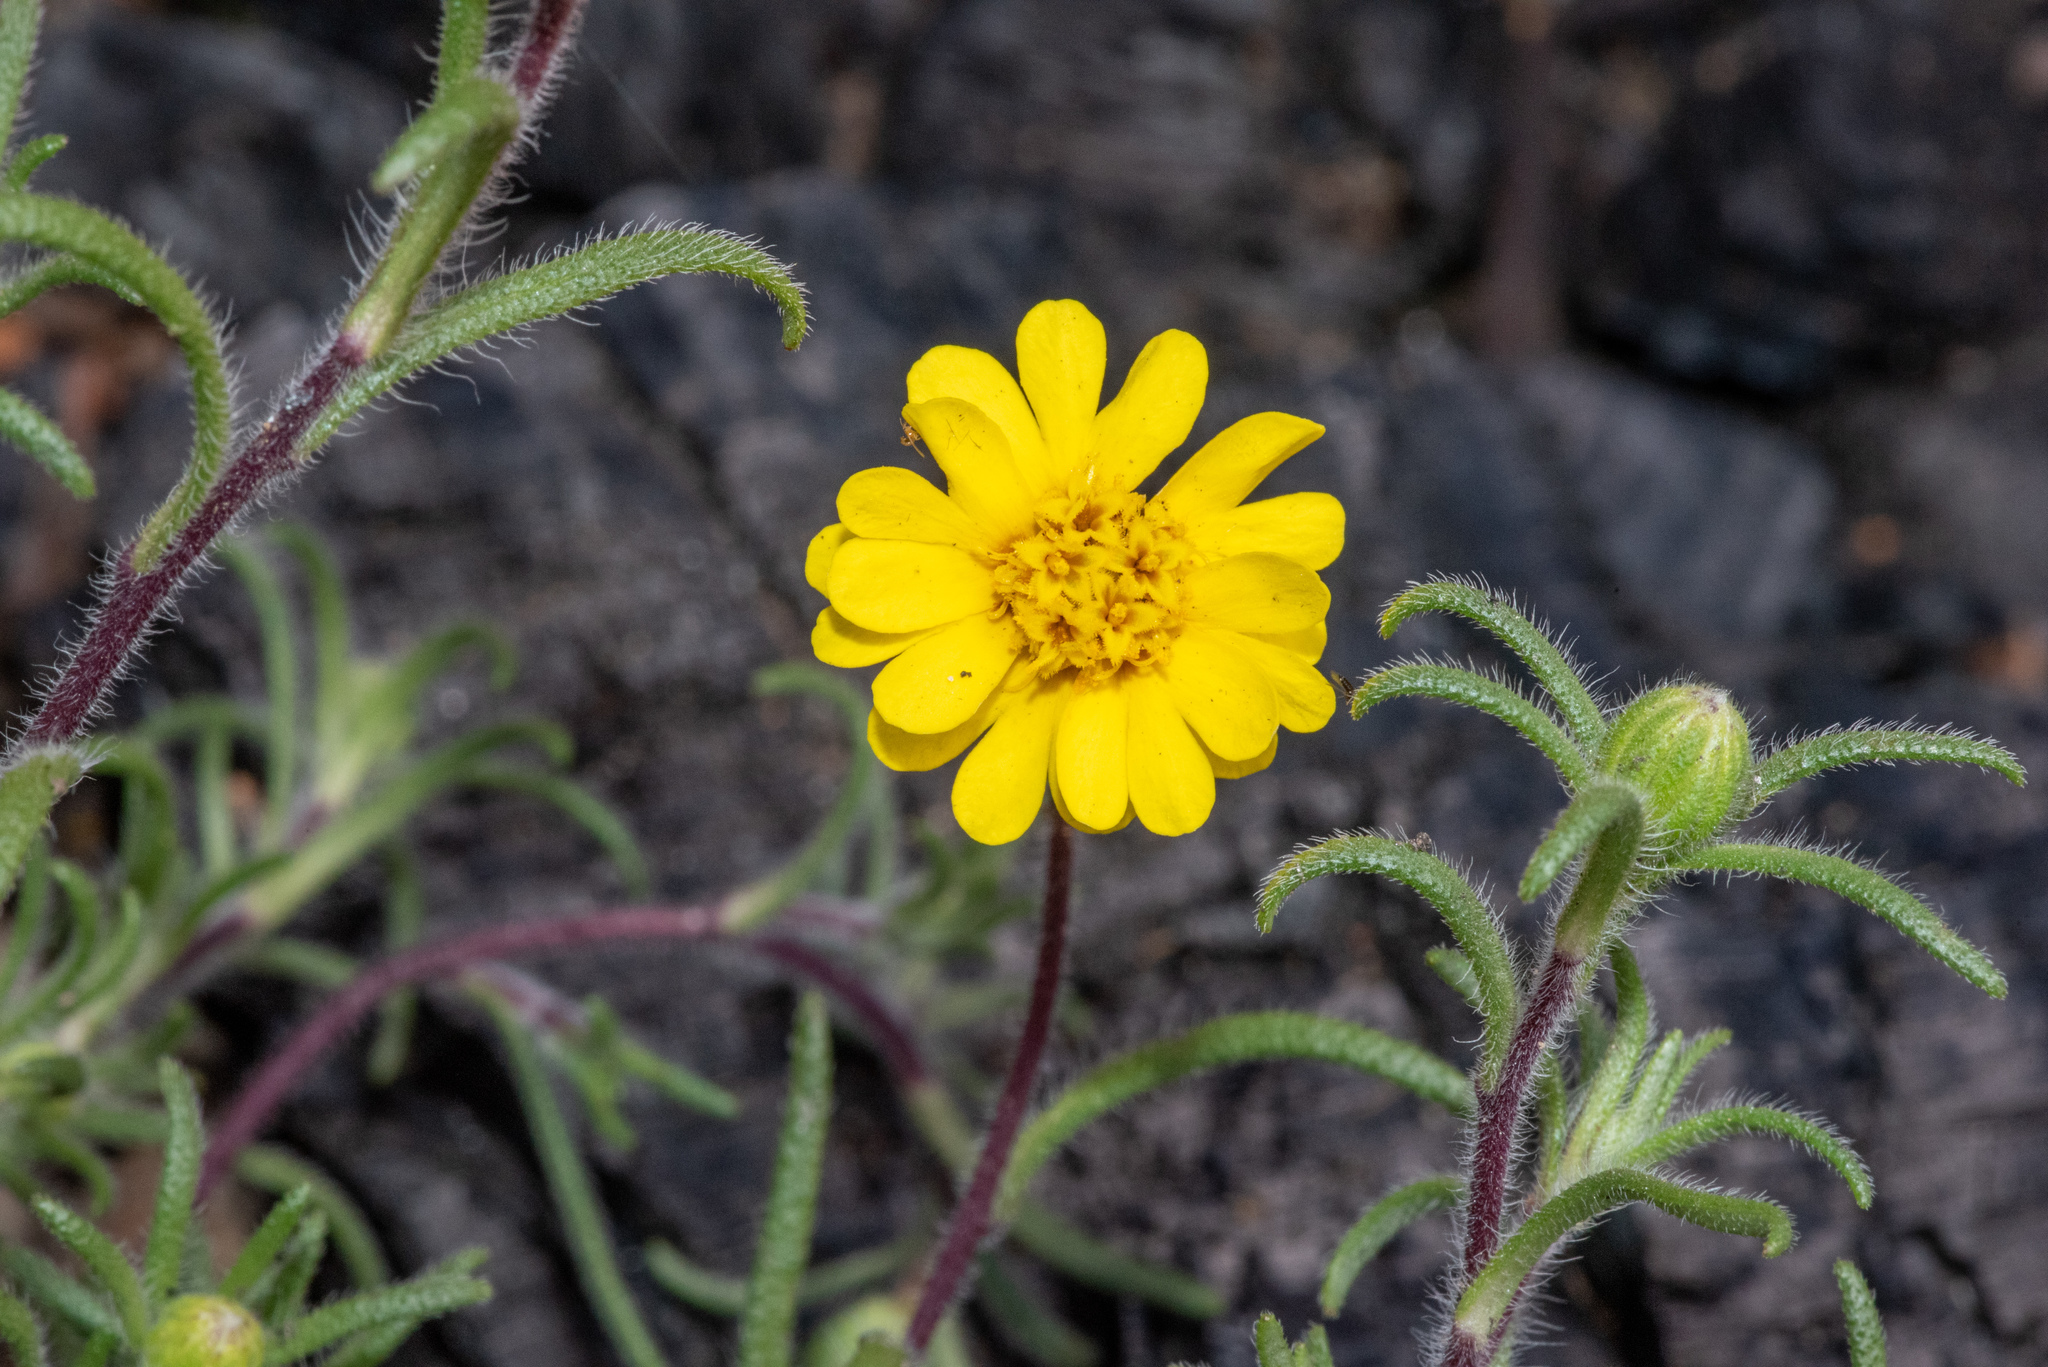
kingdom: Plantae
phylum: Tracheophyta
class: Magnoliopsida
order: Asterales
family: Asteraceae
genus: Harmonia
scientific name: Harmonia nutans
